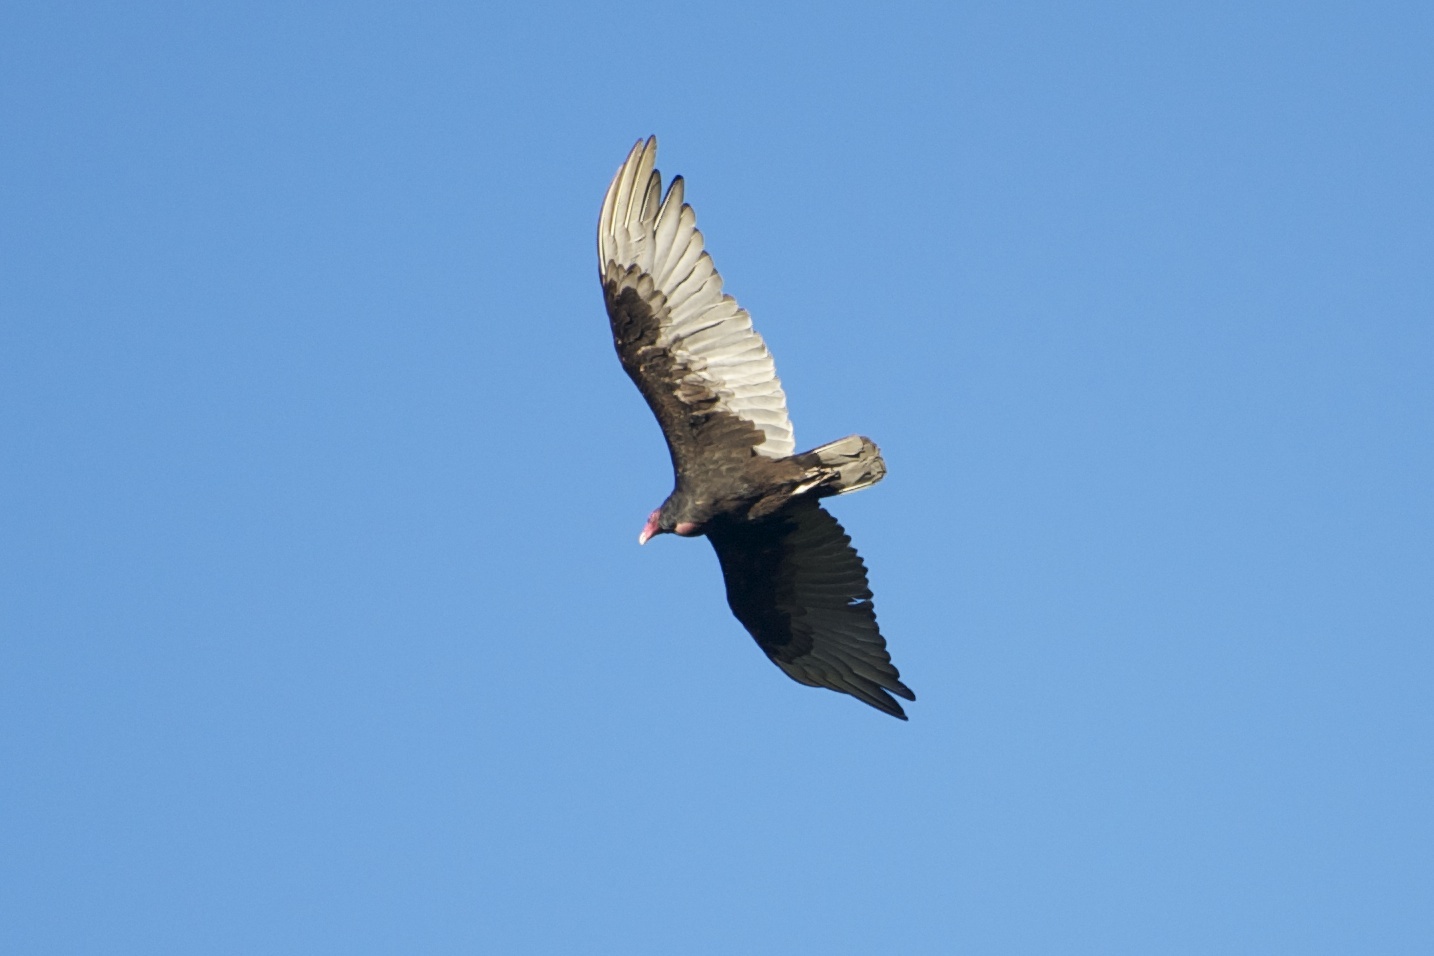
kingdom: Animalia
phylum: Chordata
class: Aves
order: Accipitriformes
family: Cathartidae
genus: Cathartes
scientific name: Cathartes aura
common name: Turkey vulture
